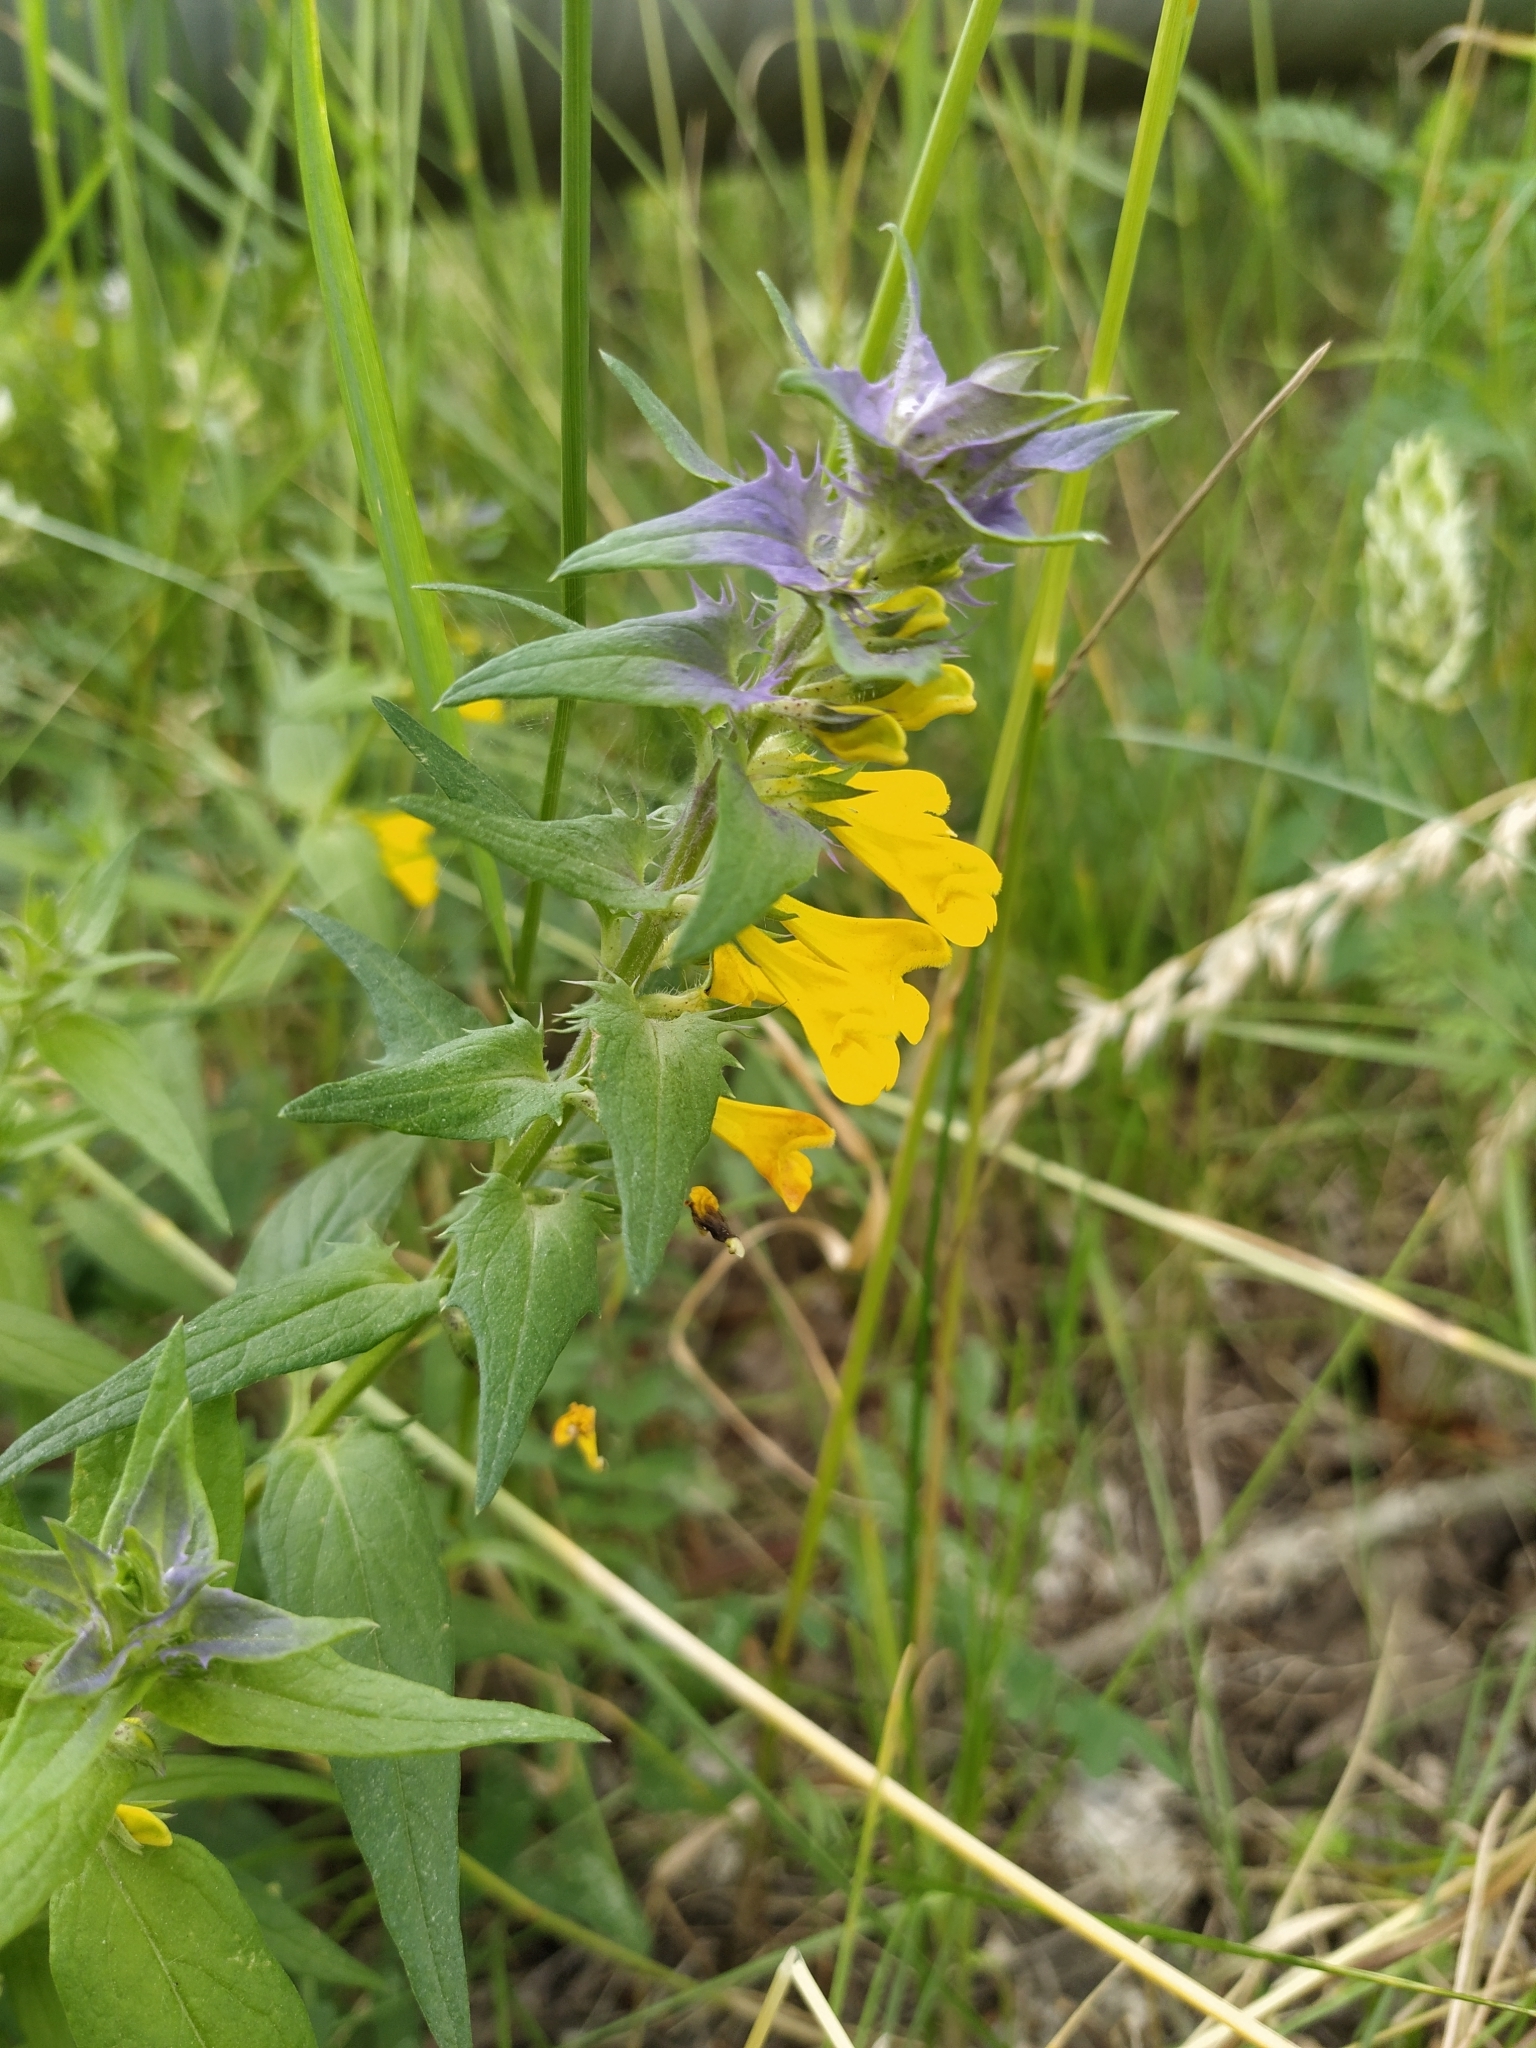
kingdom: Plantae
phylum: Tracheophyta
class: Magnoliopsida
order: Lamiales
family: Orobanchaceae
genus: Melampyrum
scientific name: Melampyrum nemorosum
